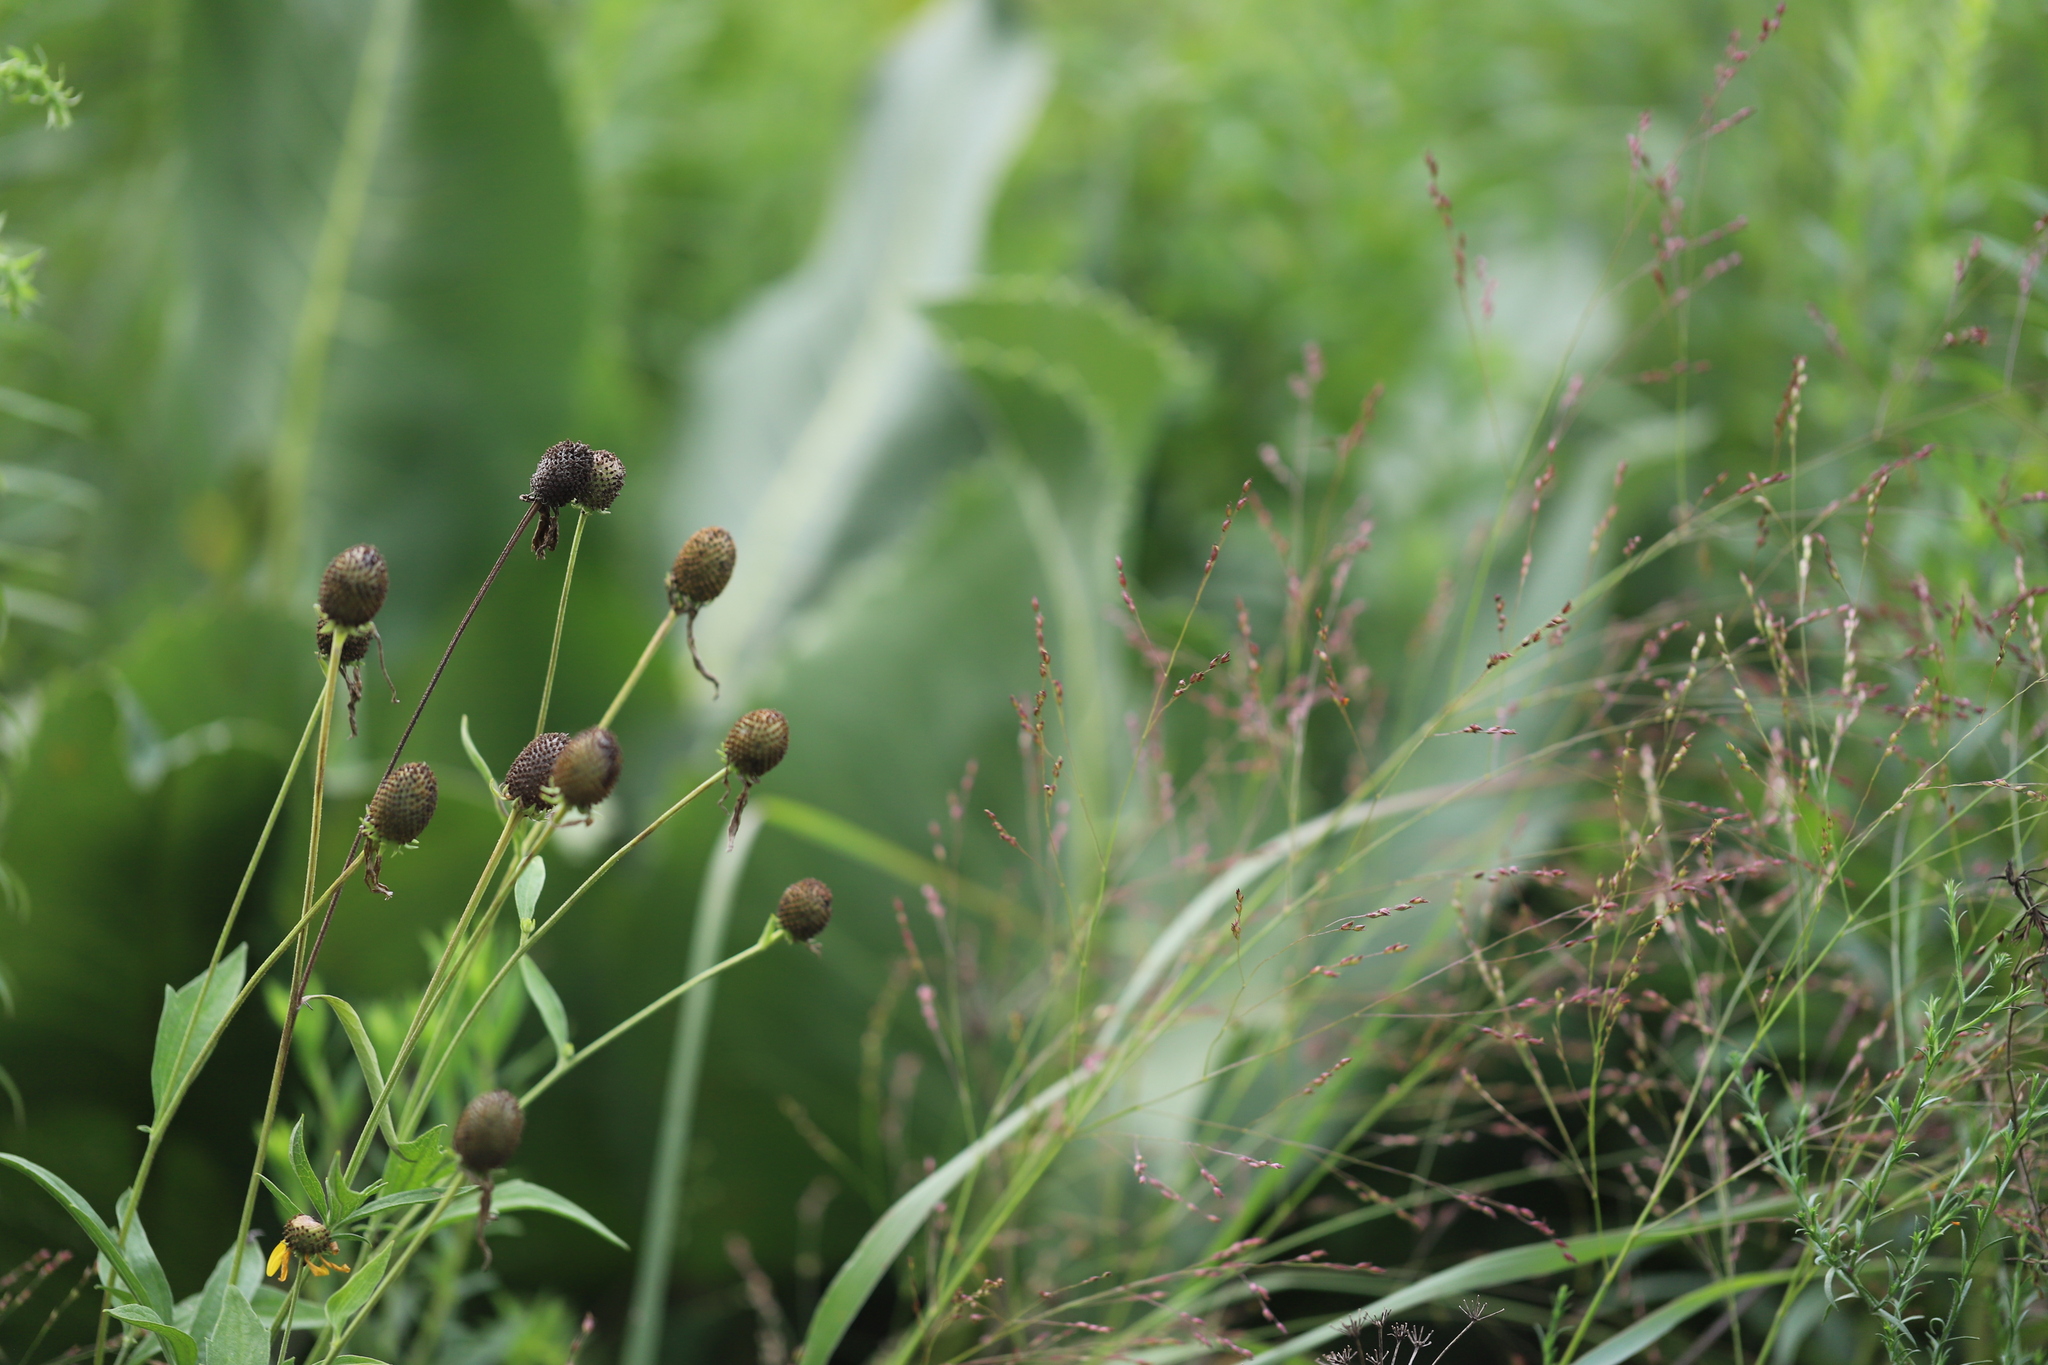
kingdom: Plantae
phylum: Tracheophyta
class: Magnoliopsida
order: Asterales
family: Asteraceae
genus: Ratibida
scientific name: Ratibida pinnata
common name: Drooping prairie-coneflower
